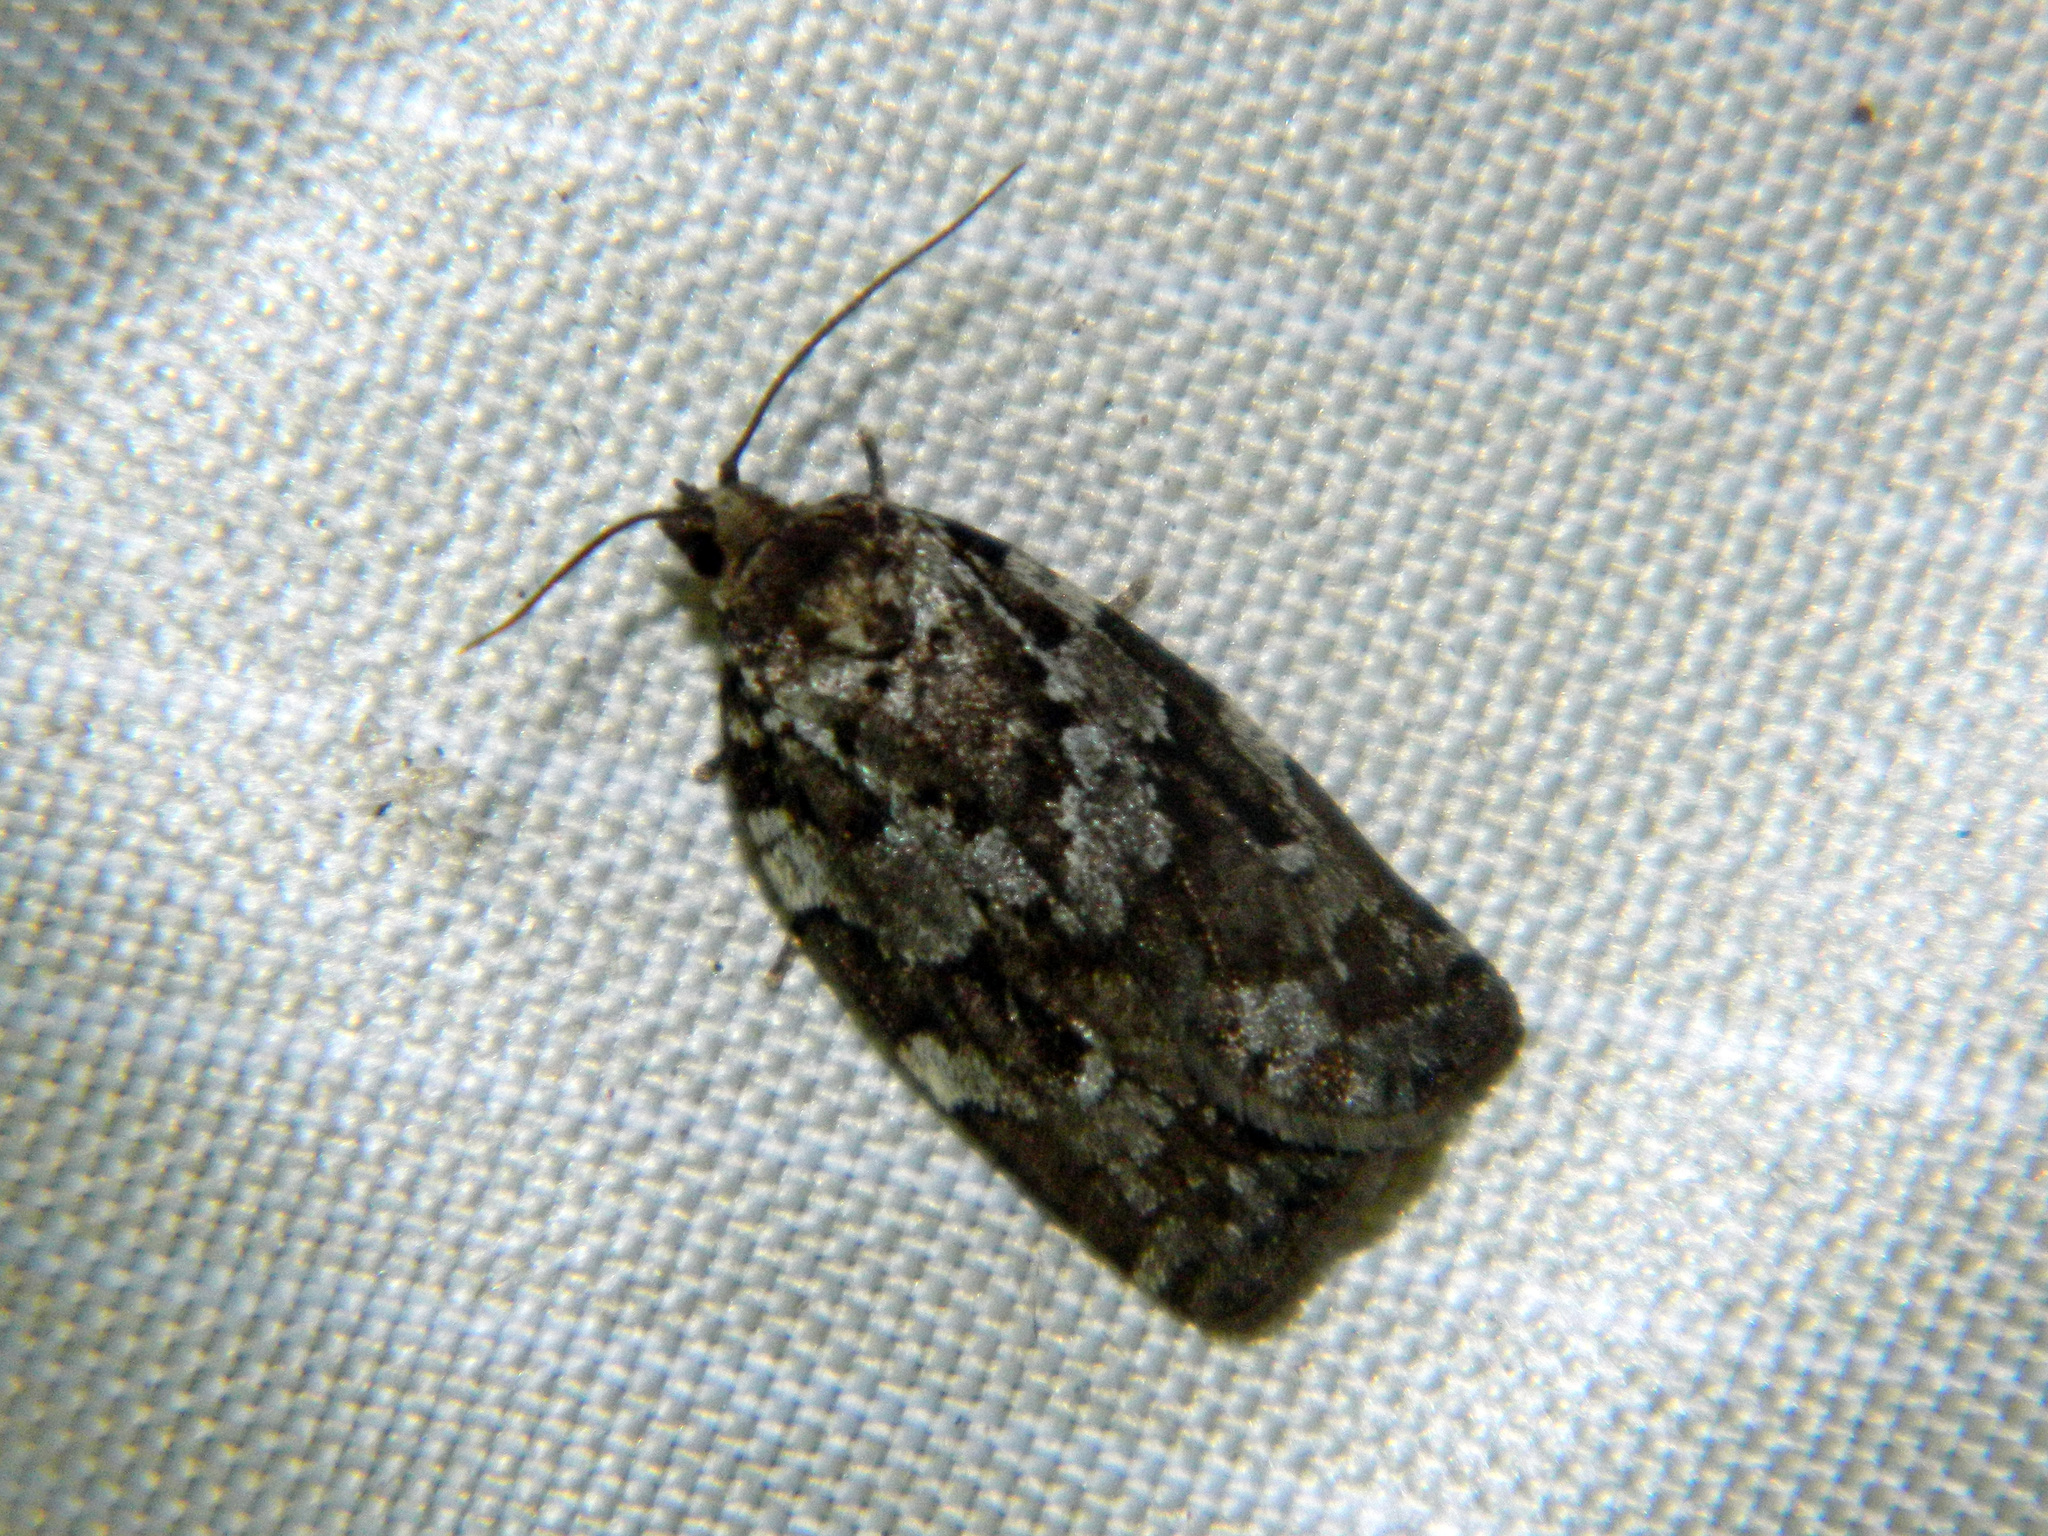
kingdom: Animalia
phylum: Arthropoda
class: Insecta
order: Lepidoptera
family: Tortricidae
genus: Choristoneura
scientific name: Choristoneura fumiferana
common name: Spruce budworm
